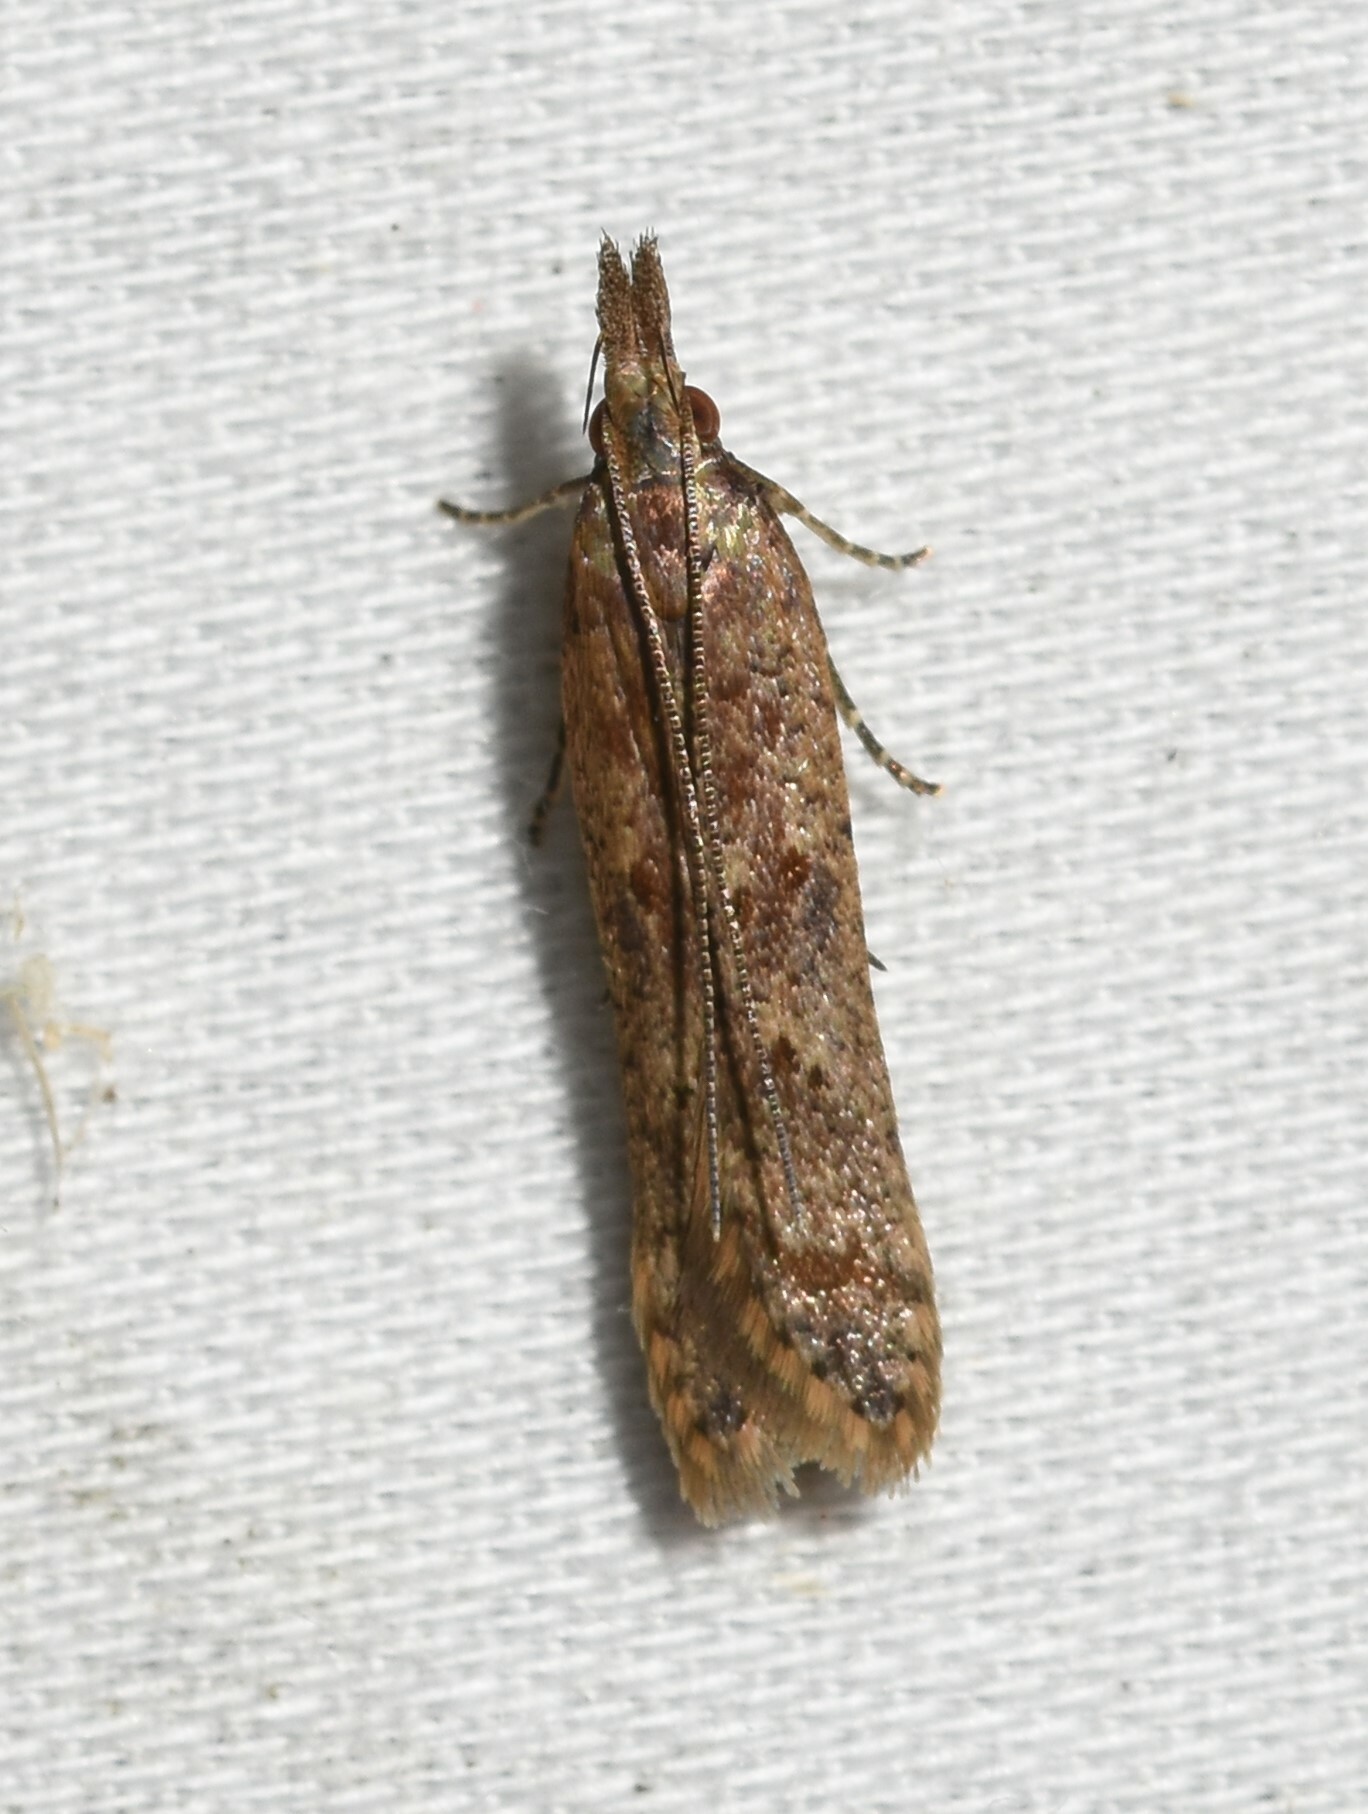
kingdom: Animalia
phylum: Arthropoda
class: Insecta
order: Lepidoptera
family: Gelechiidae
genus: Dichomeris
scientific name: Dichomeris ligulella
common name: Moth
